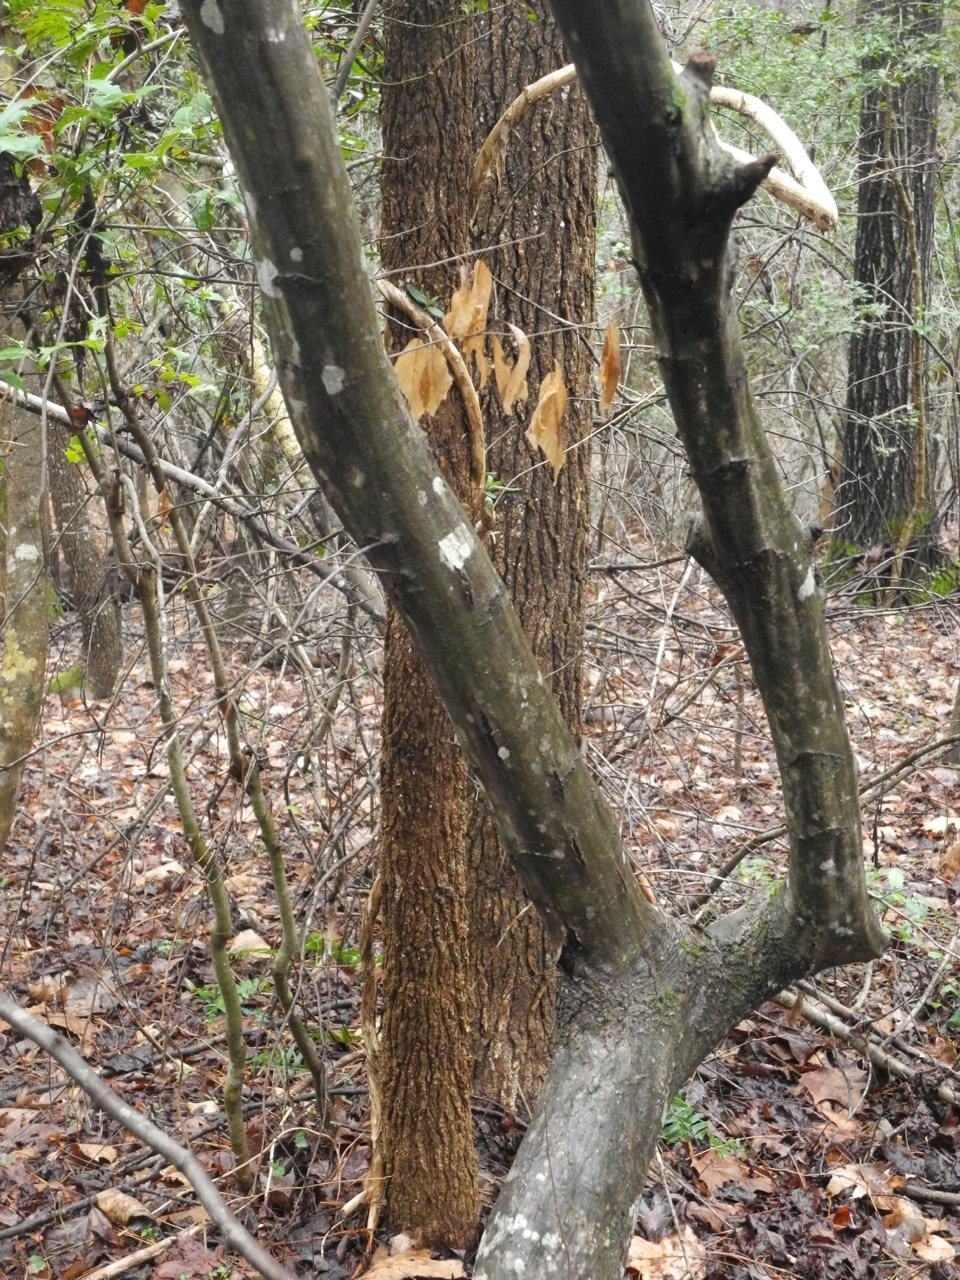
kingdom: Plantae
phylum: Tracheophyta
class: Magnoliopsida
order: Fagales
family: Betulaceae
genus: Carpinus
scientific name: Carpinus caroliniana
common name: American hornbeam
